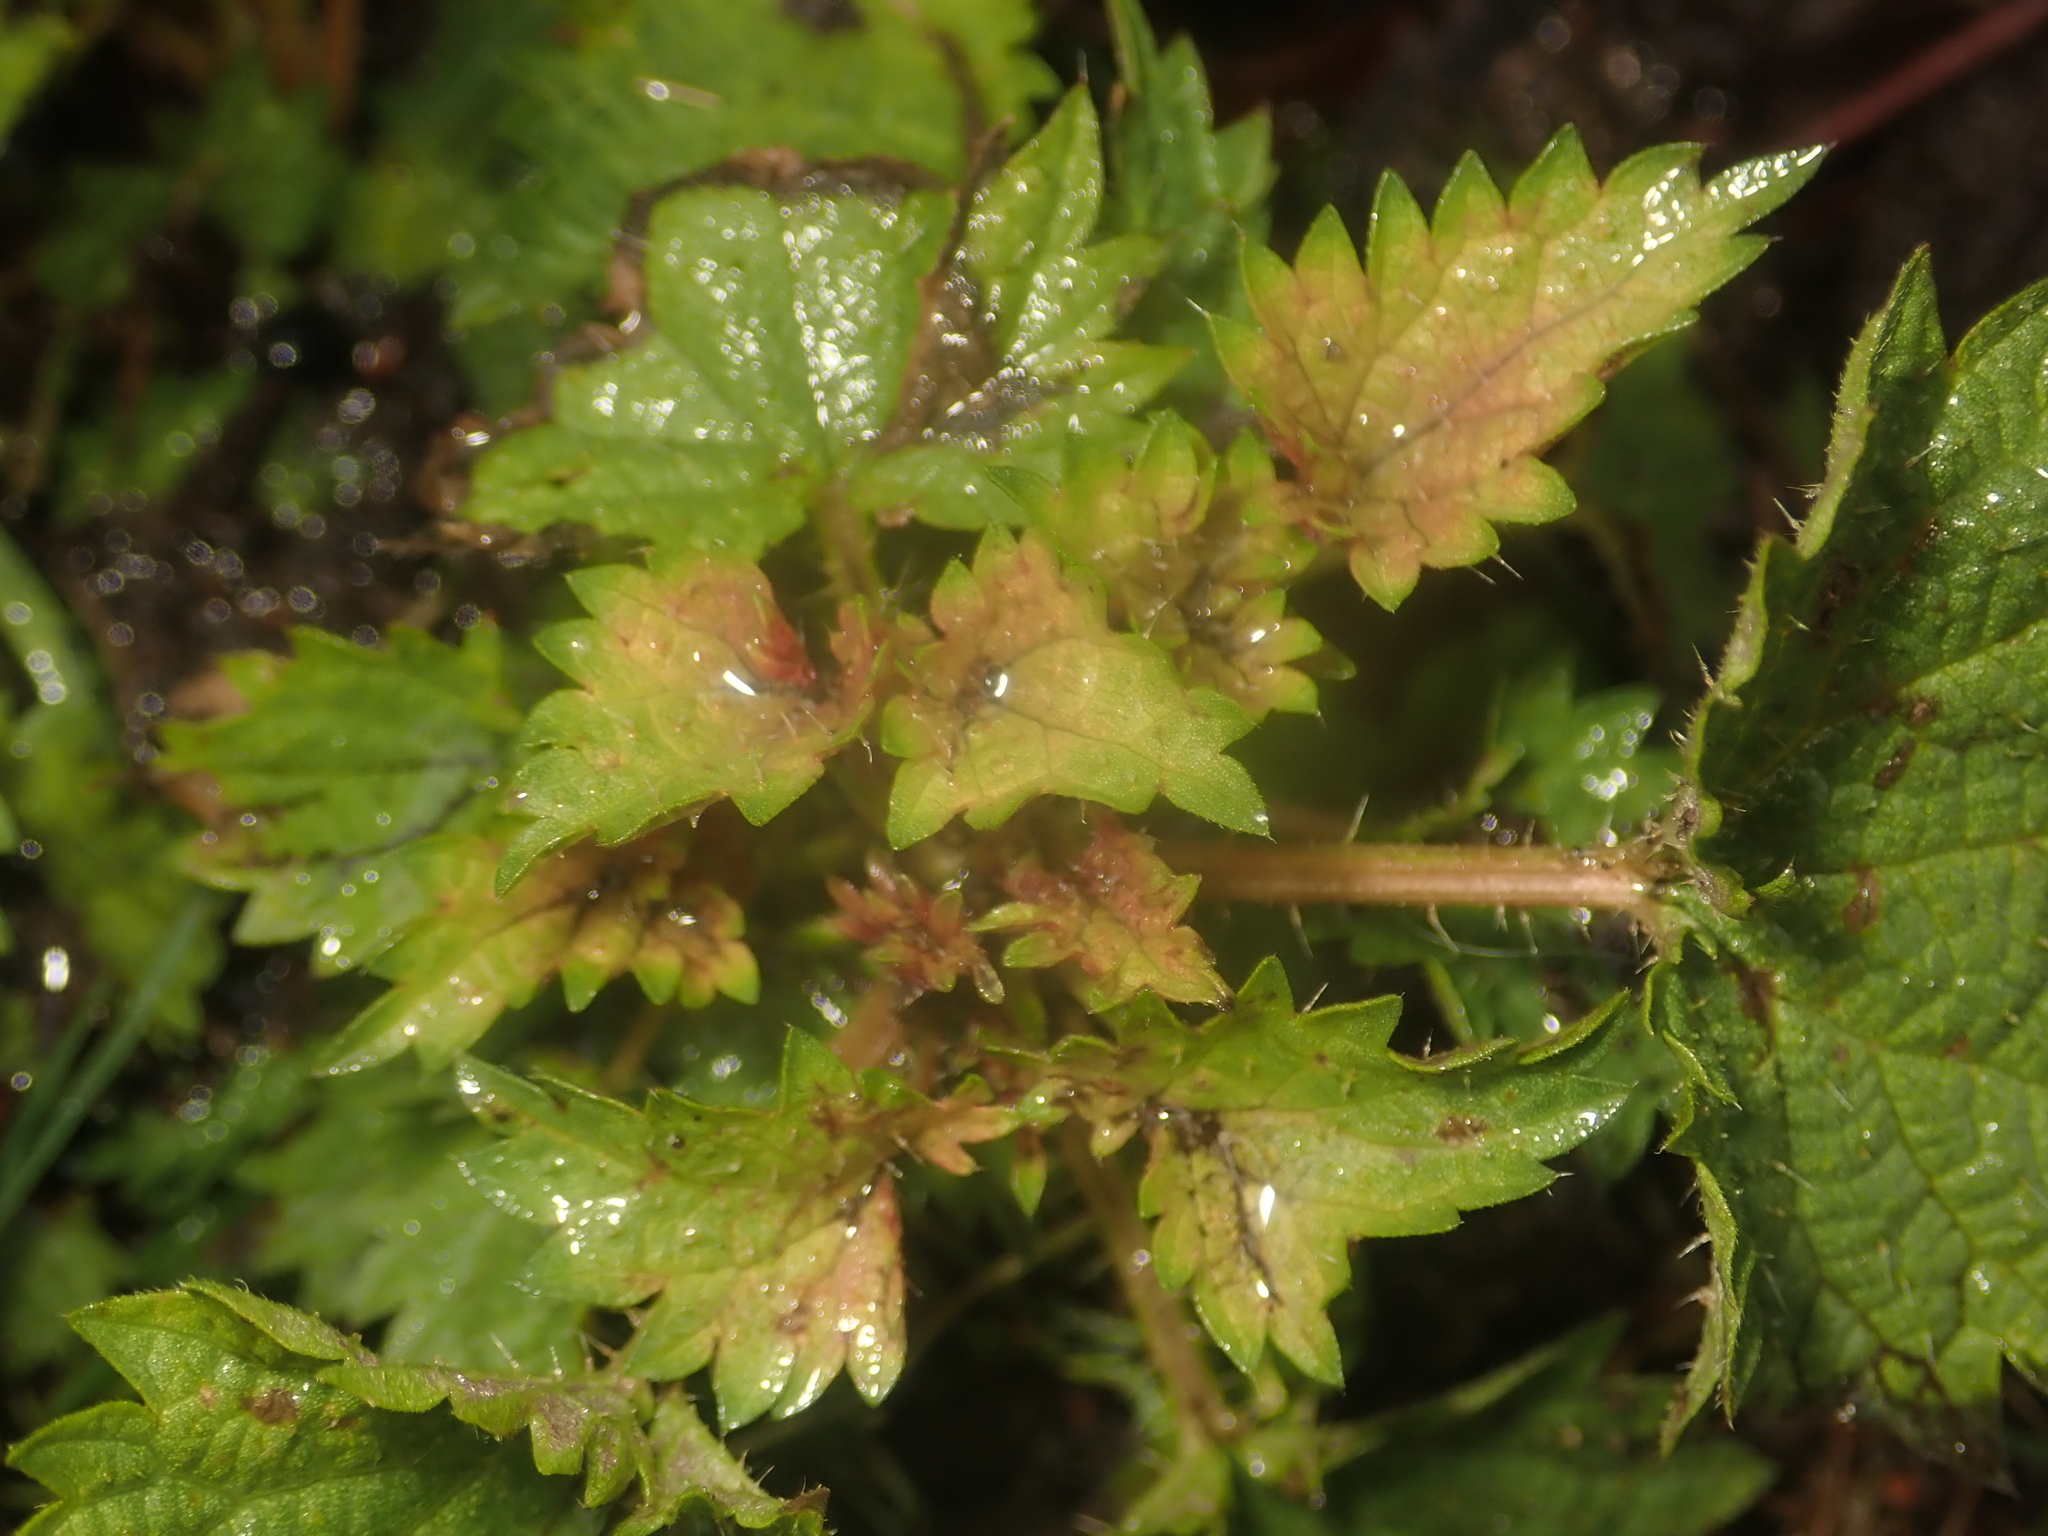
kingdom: Plantae
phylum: Tracheophyta
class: Magnoliopsida
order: Rosales
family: Urticaceae
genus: Urtica
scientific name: Urtica dioica
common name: Common nettle
